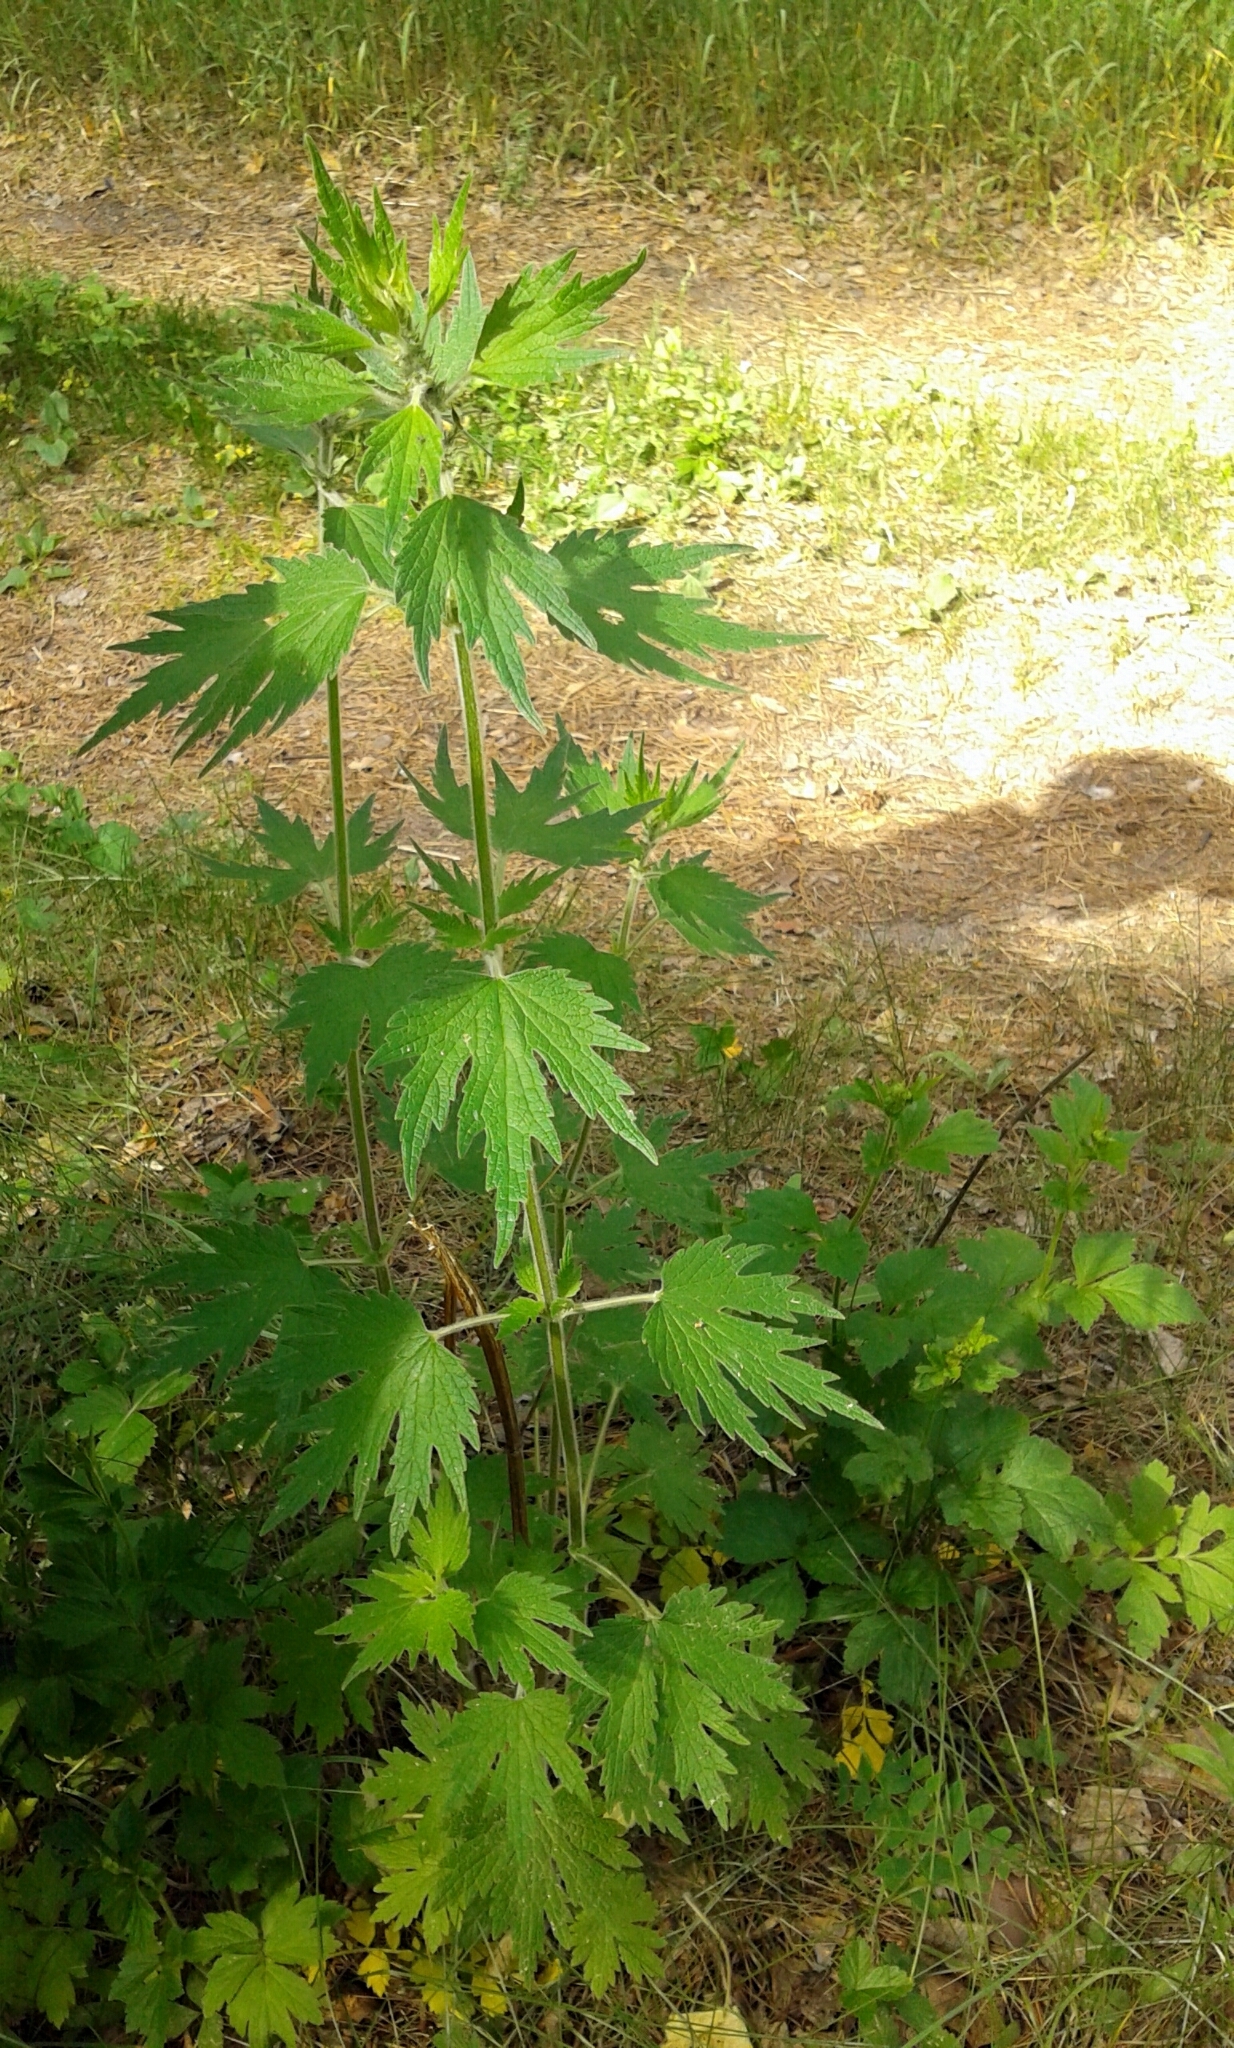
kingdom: Plantae
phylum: Tracheophyta
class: Magnoliopsida
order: Lamiales
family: Lamiaceae
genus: Leonurus
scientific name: Leonurus quinquelobatus
